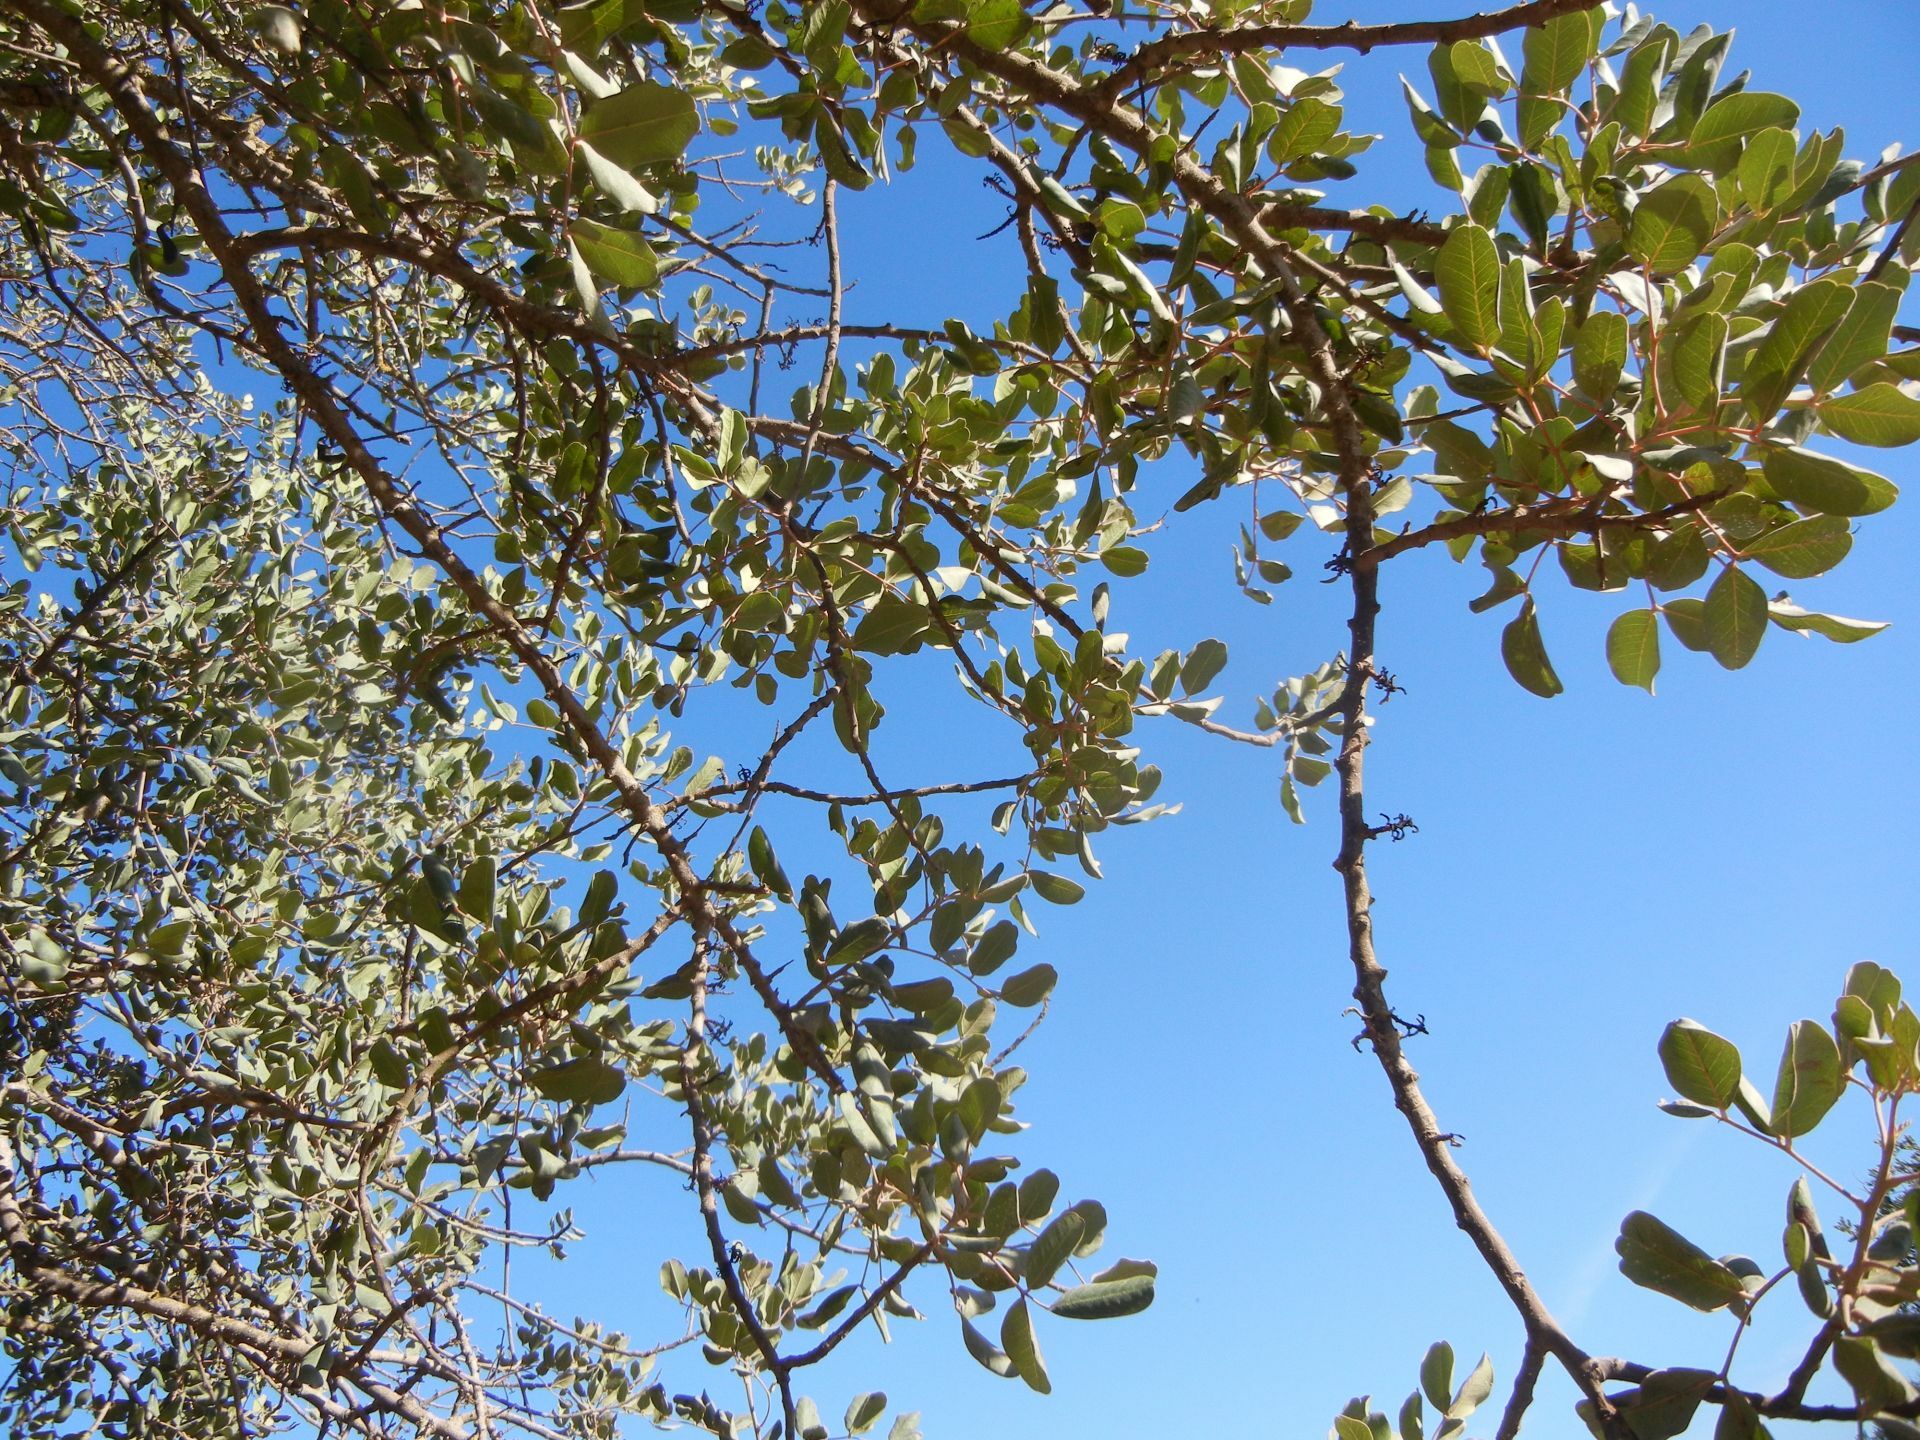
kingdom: Plantae
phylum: Tracheophyta
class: Magnoliopsida
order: Fabales
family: Fabaceae
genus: Ceratonia
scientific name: Ceratonia siliqua
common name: Carob
